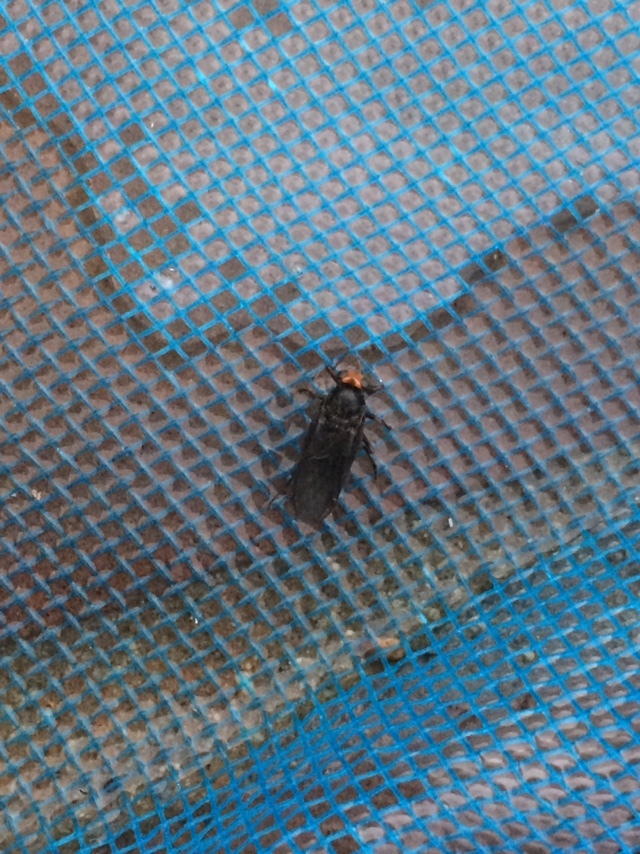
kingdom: Animalia
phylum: Arthropoda
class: Insecta
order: Diptera
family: Stratiomyidae
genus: Inopus
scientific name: Inopus rubriceps
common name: Soldier fly
